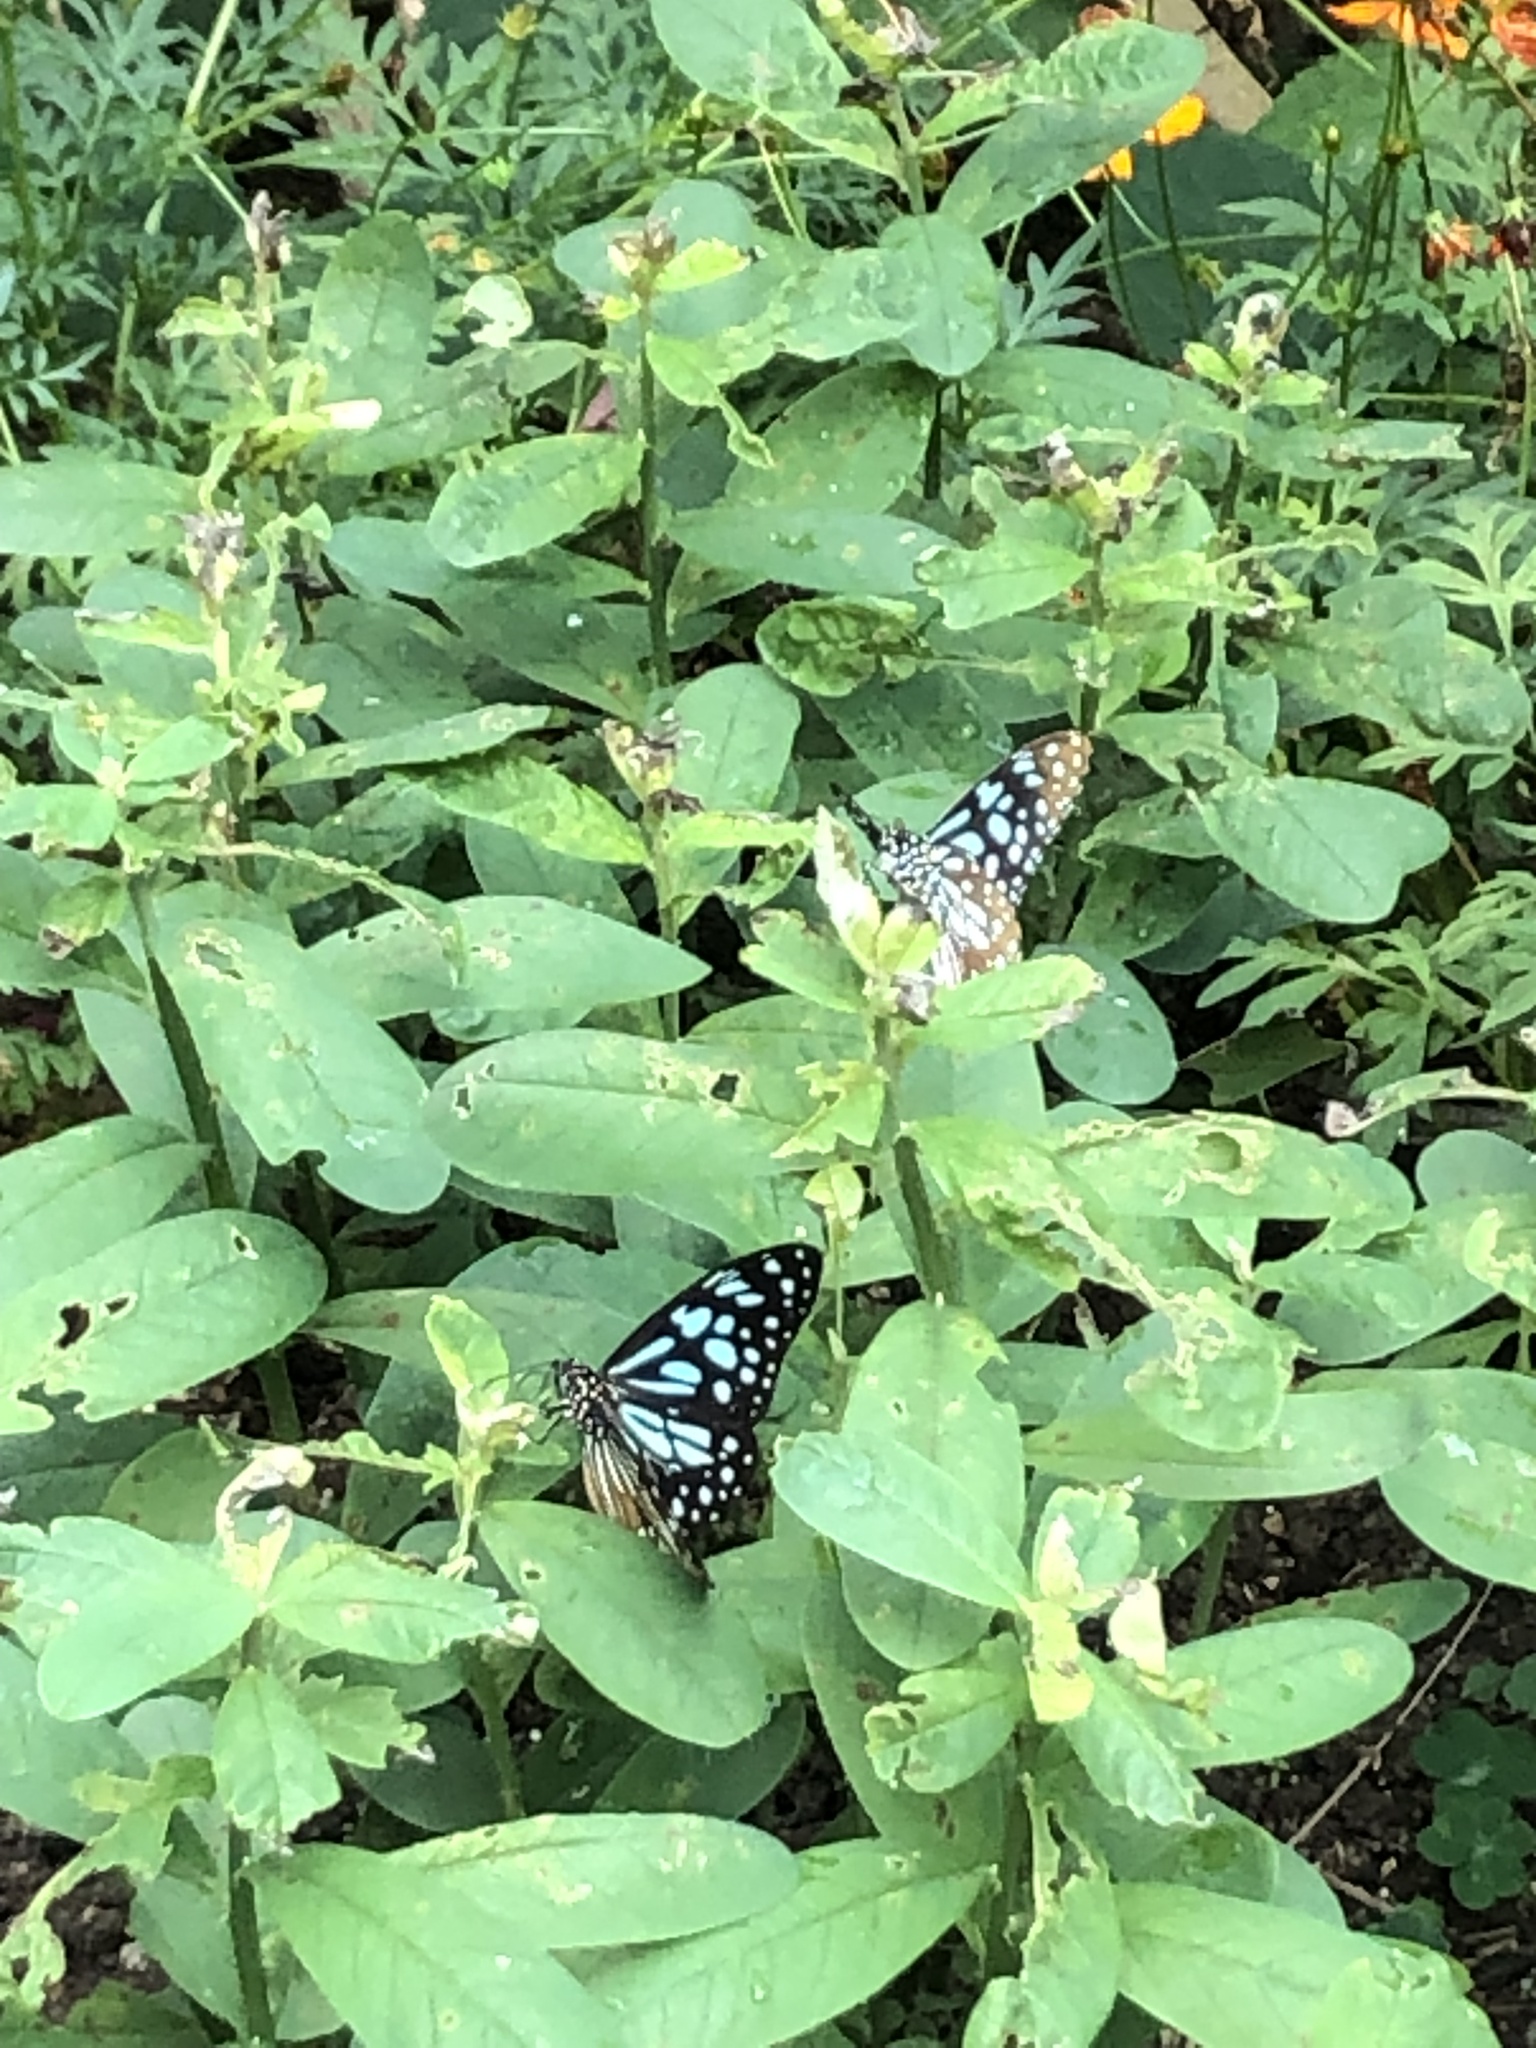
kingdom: Animalia
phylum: Arthropoda
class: Insecta
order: Lepidoptera
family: Nymphalidae
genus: Tirumala
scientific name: Tirumala limniace
